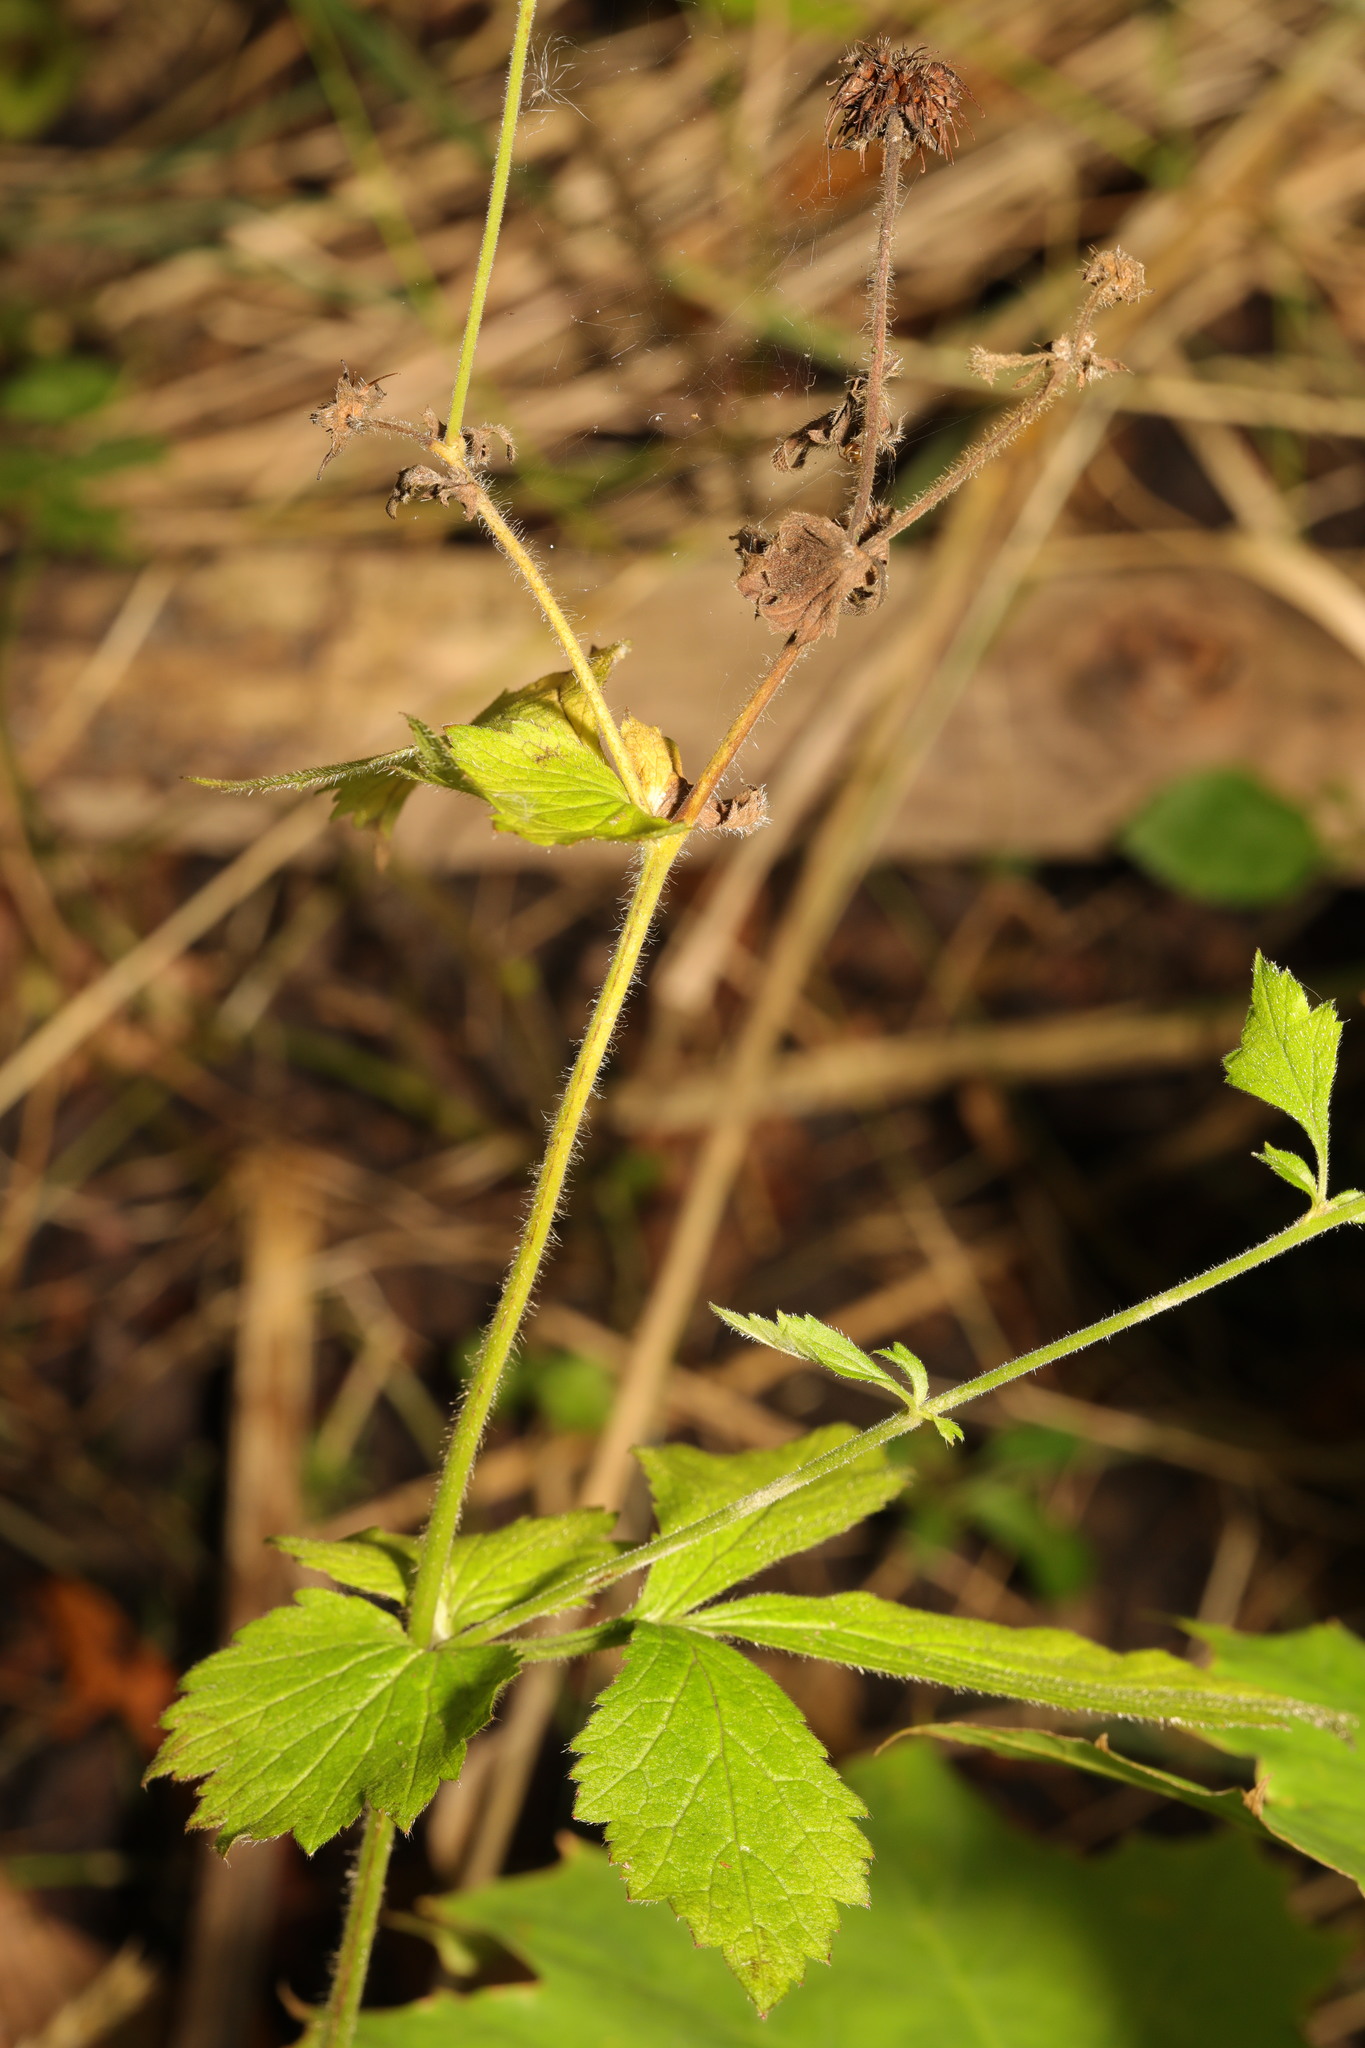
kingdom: Plantae
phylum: Tracheophyta
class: Magnoliopsida
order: Rosales
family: Rosaceae
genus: Geum
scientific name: Geum urbanum
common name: Wood avens
